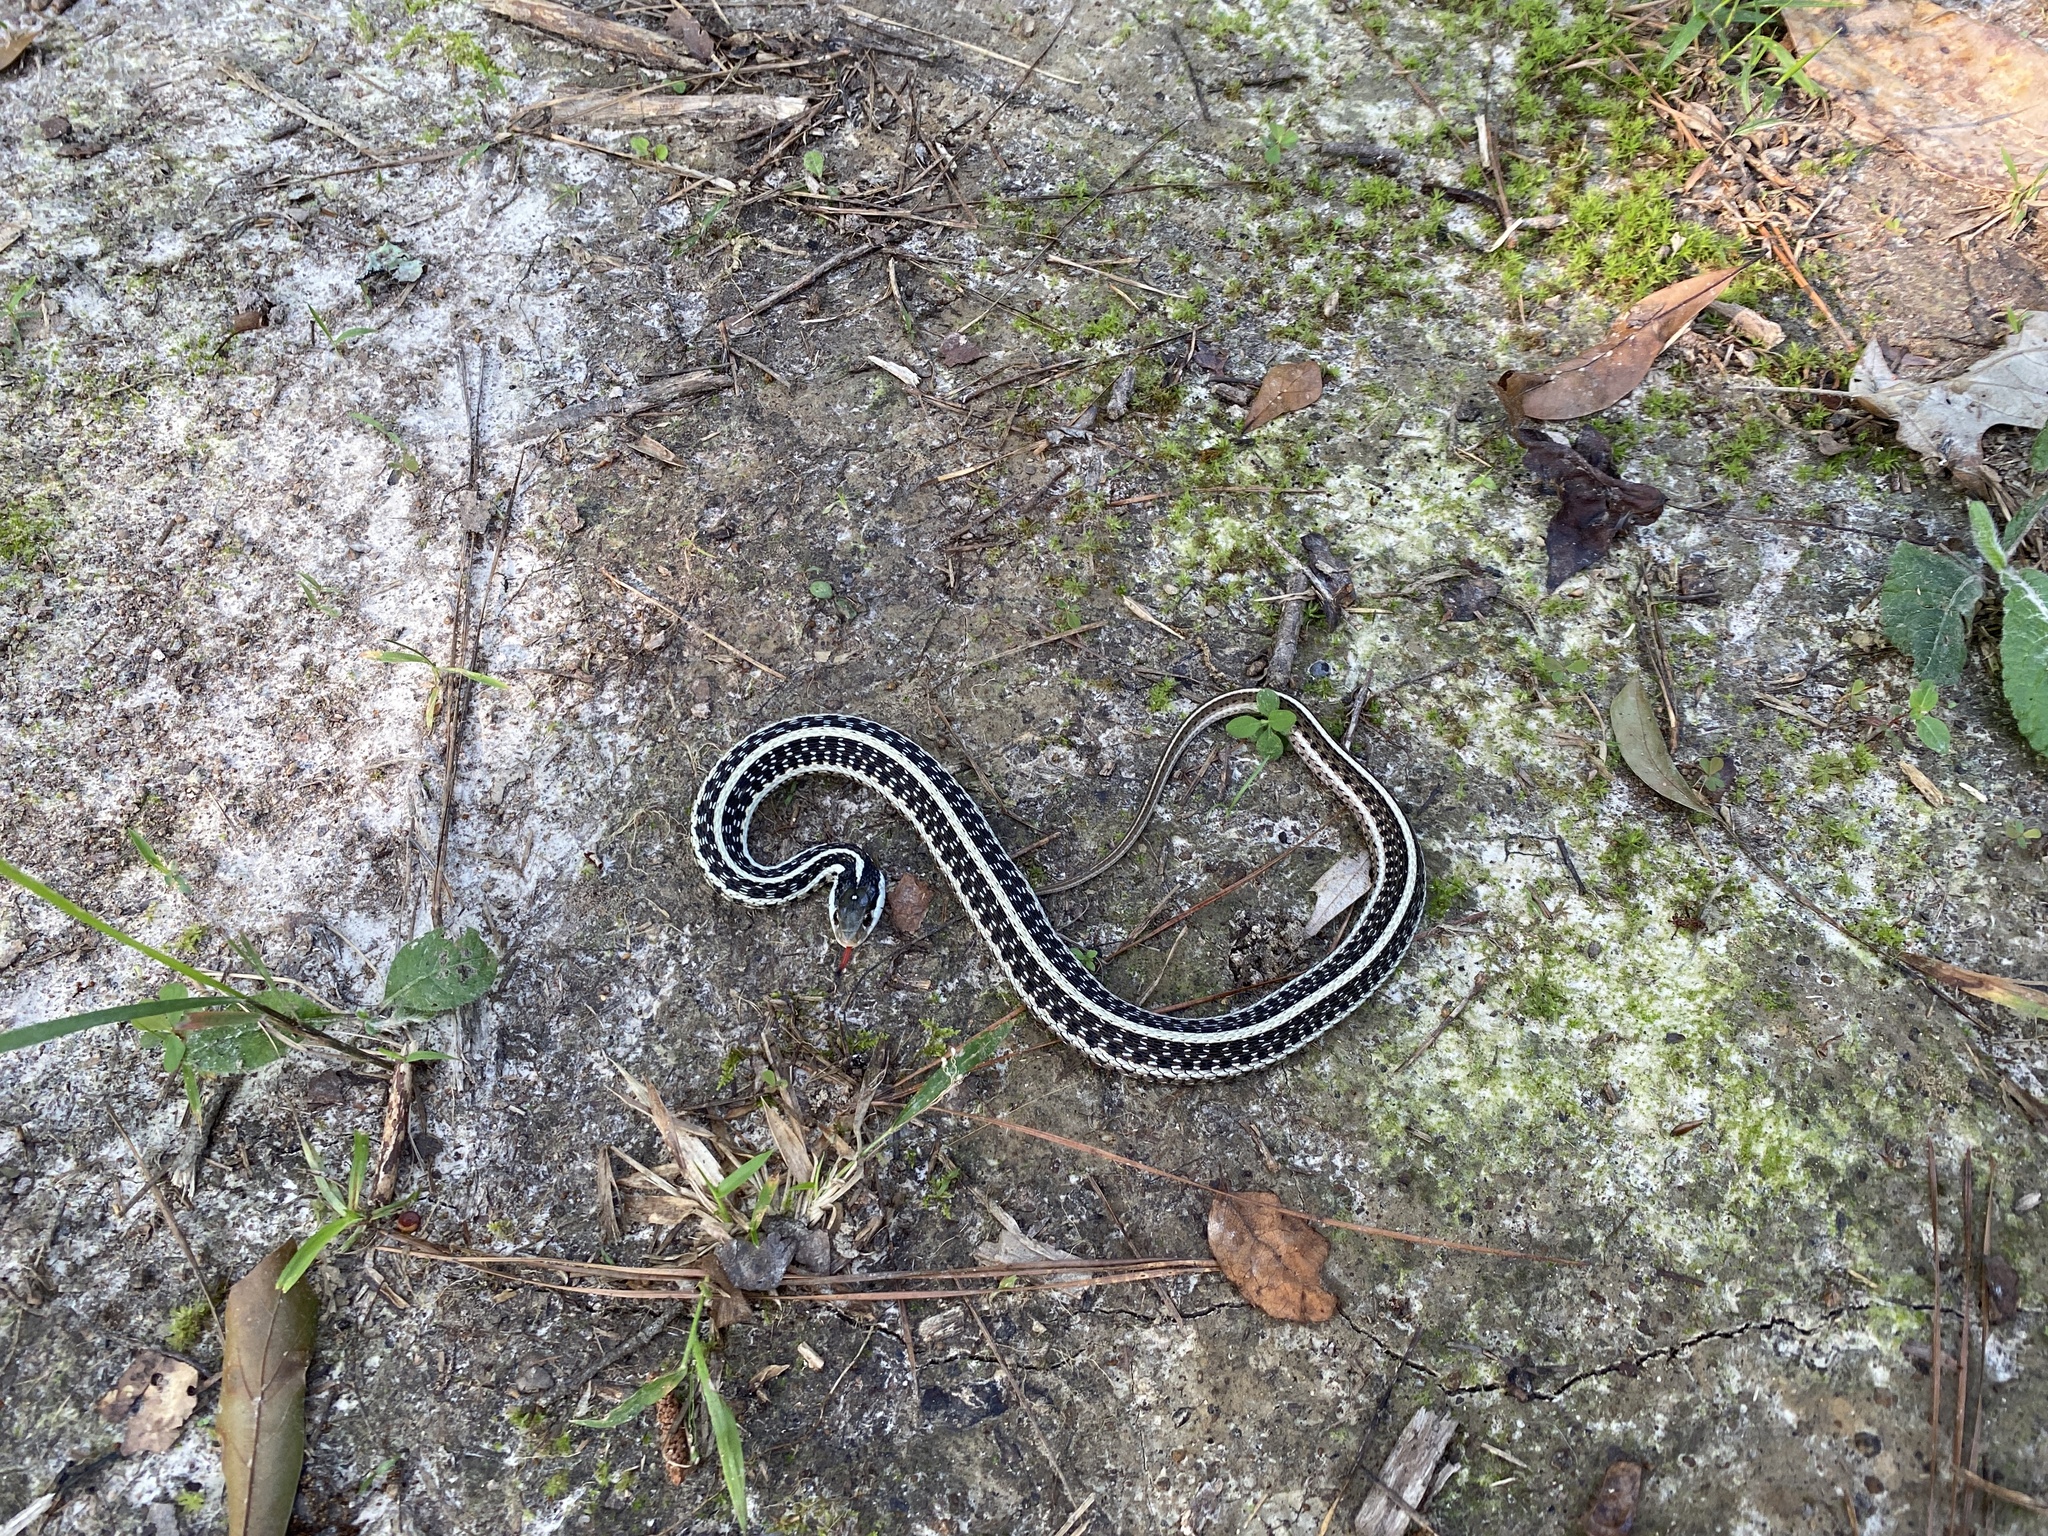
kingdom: Animalia
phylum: Chordata
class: Squamata
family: Colubridae
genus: Thamnophis
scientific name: Thamnophis sirtalis
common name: Common garter snake
